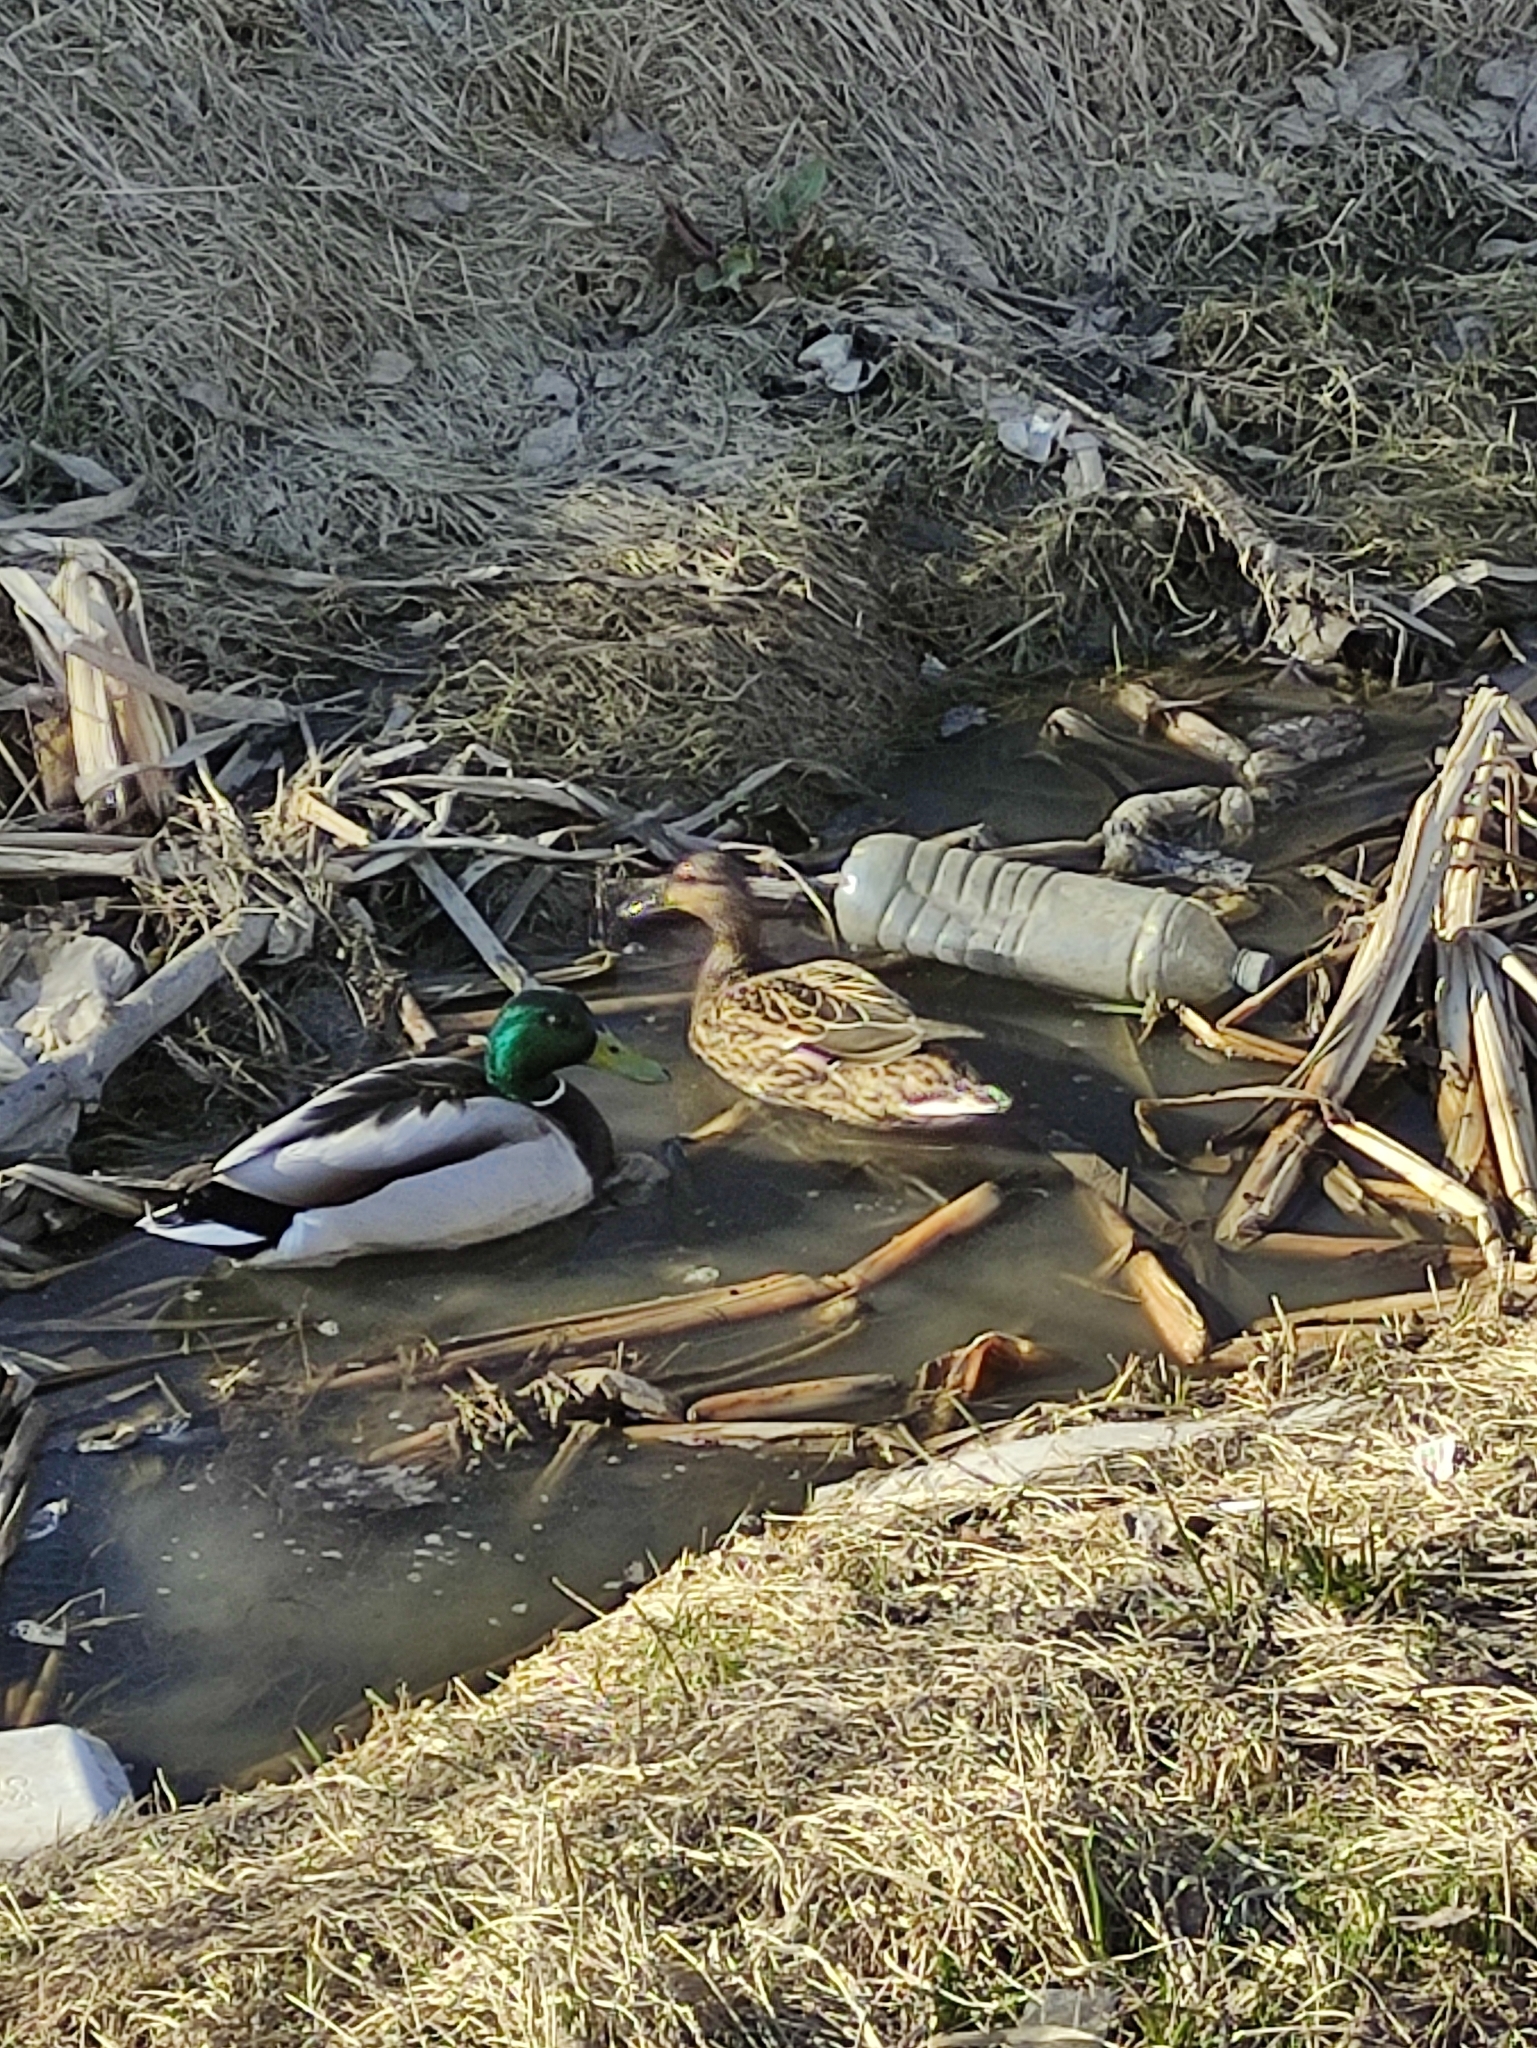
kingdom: Animalia
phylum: Chordata
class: Aves
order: Anseriformes
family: Anatidae
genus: Anas
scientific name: Anas platyrhynchos
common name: Mallard
